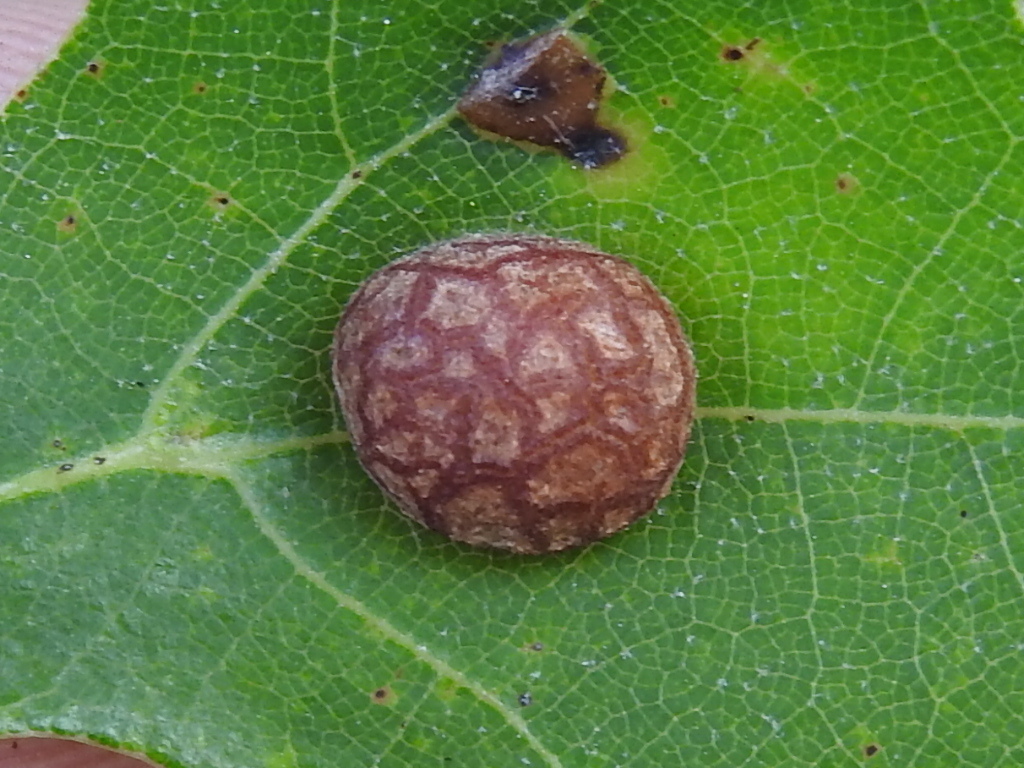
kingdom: Animalia
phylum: Arthropoda
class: Insecta
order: Diptera
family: Cecidomyiidae
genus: Polystepha
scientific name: Polystepha pilulae
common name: Oak leaf gall midge
